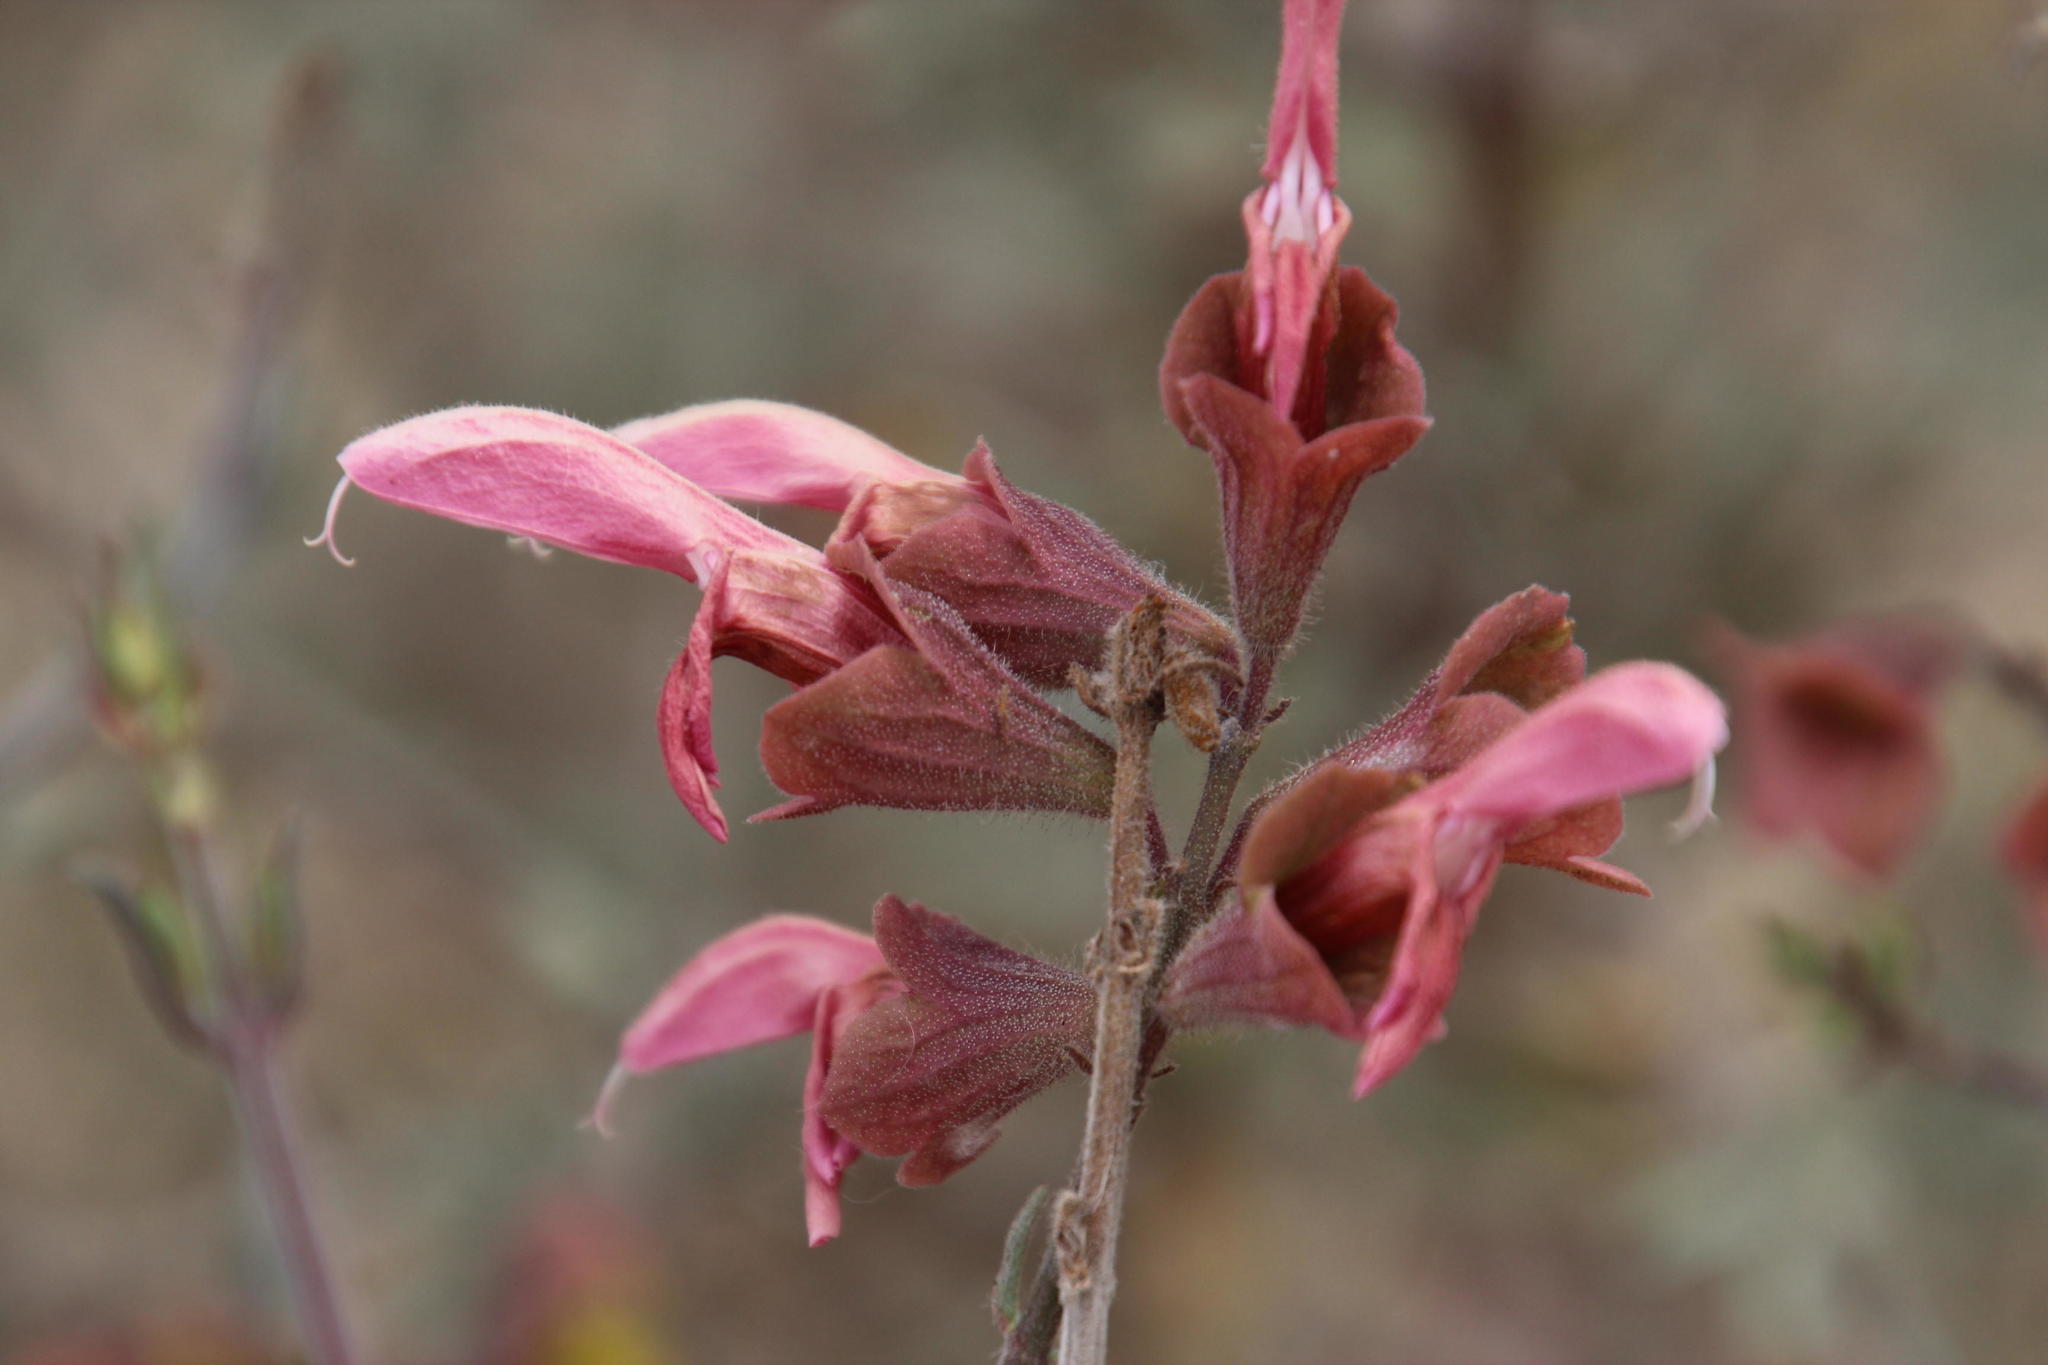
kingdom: Plantae
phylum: Tracheophyta
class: Magnoliopsida
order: Lamiales
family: Lamiaceae
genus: Salvia
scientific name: Salvia lanceolata
